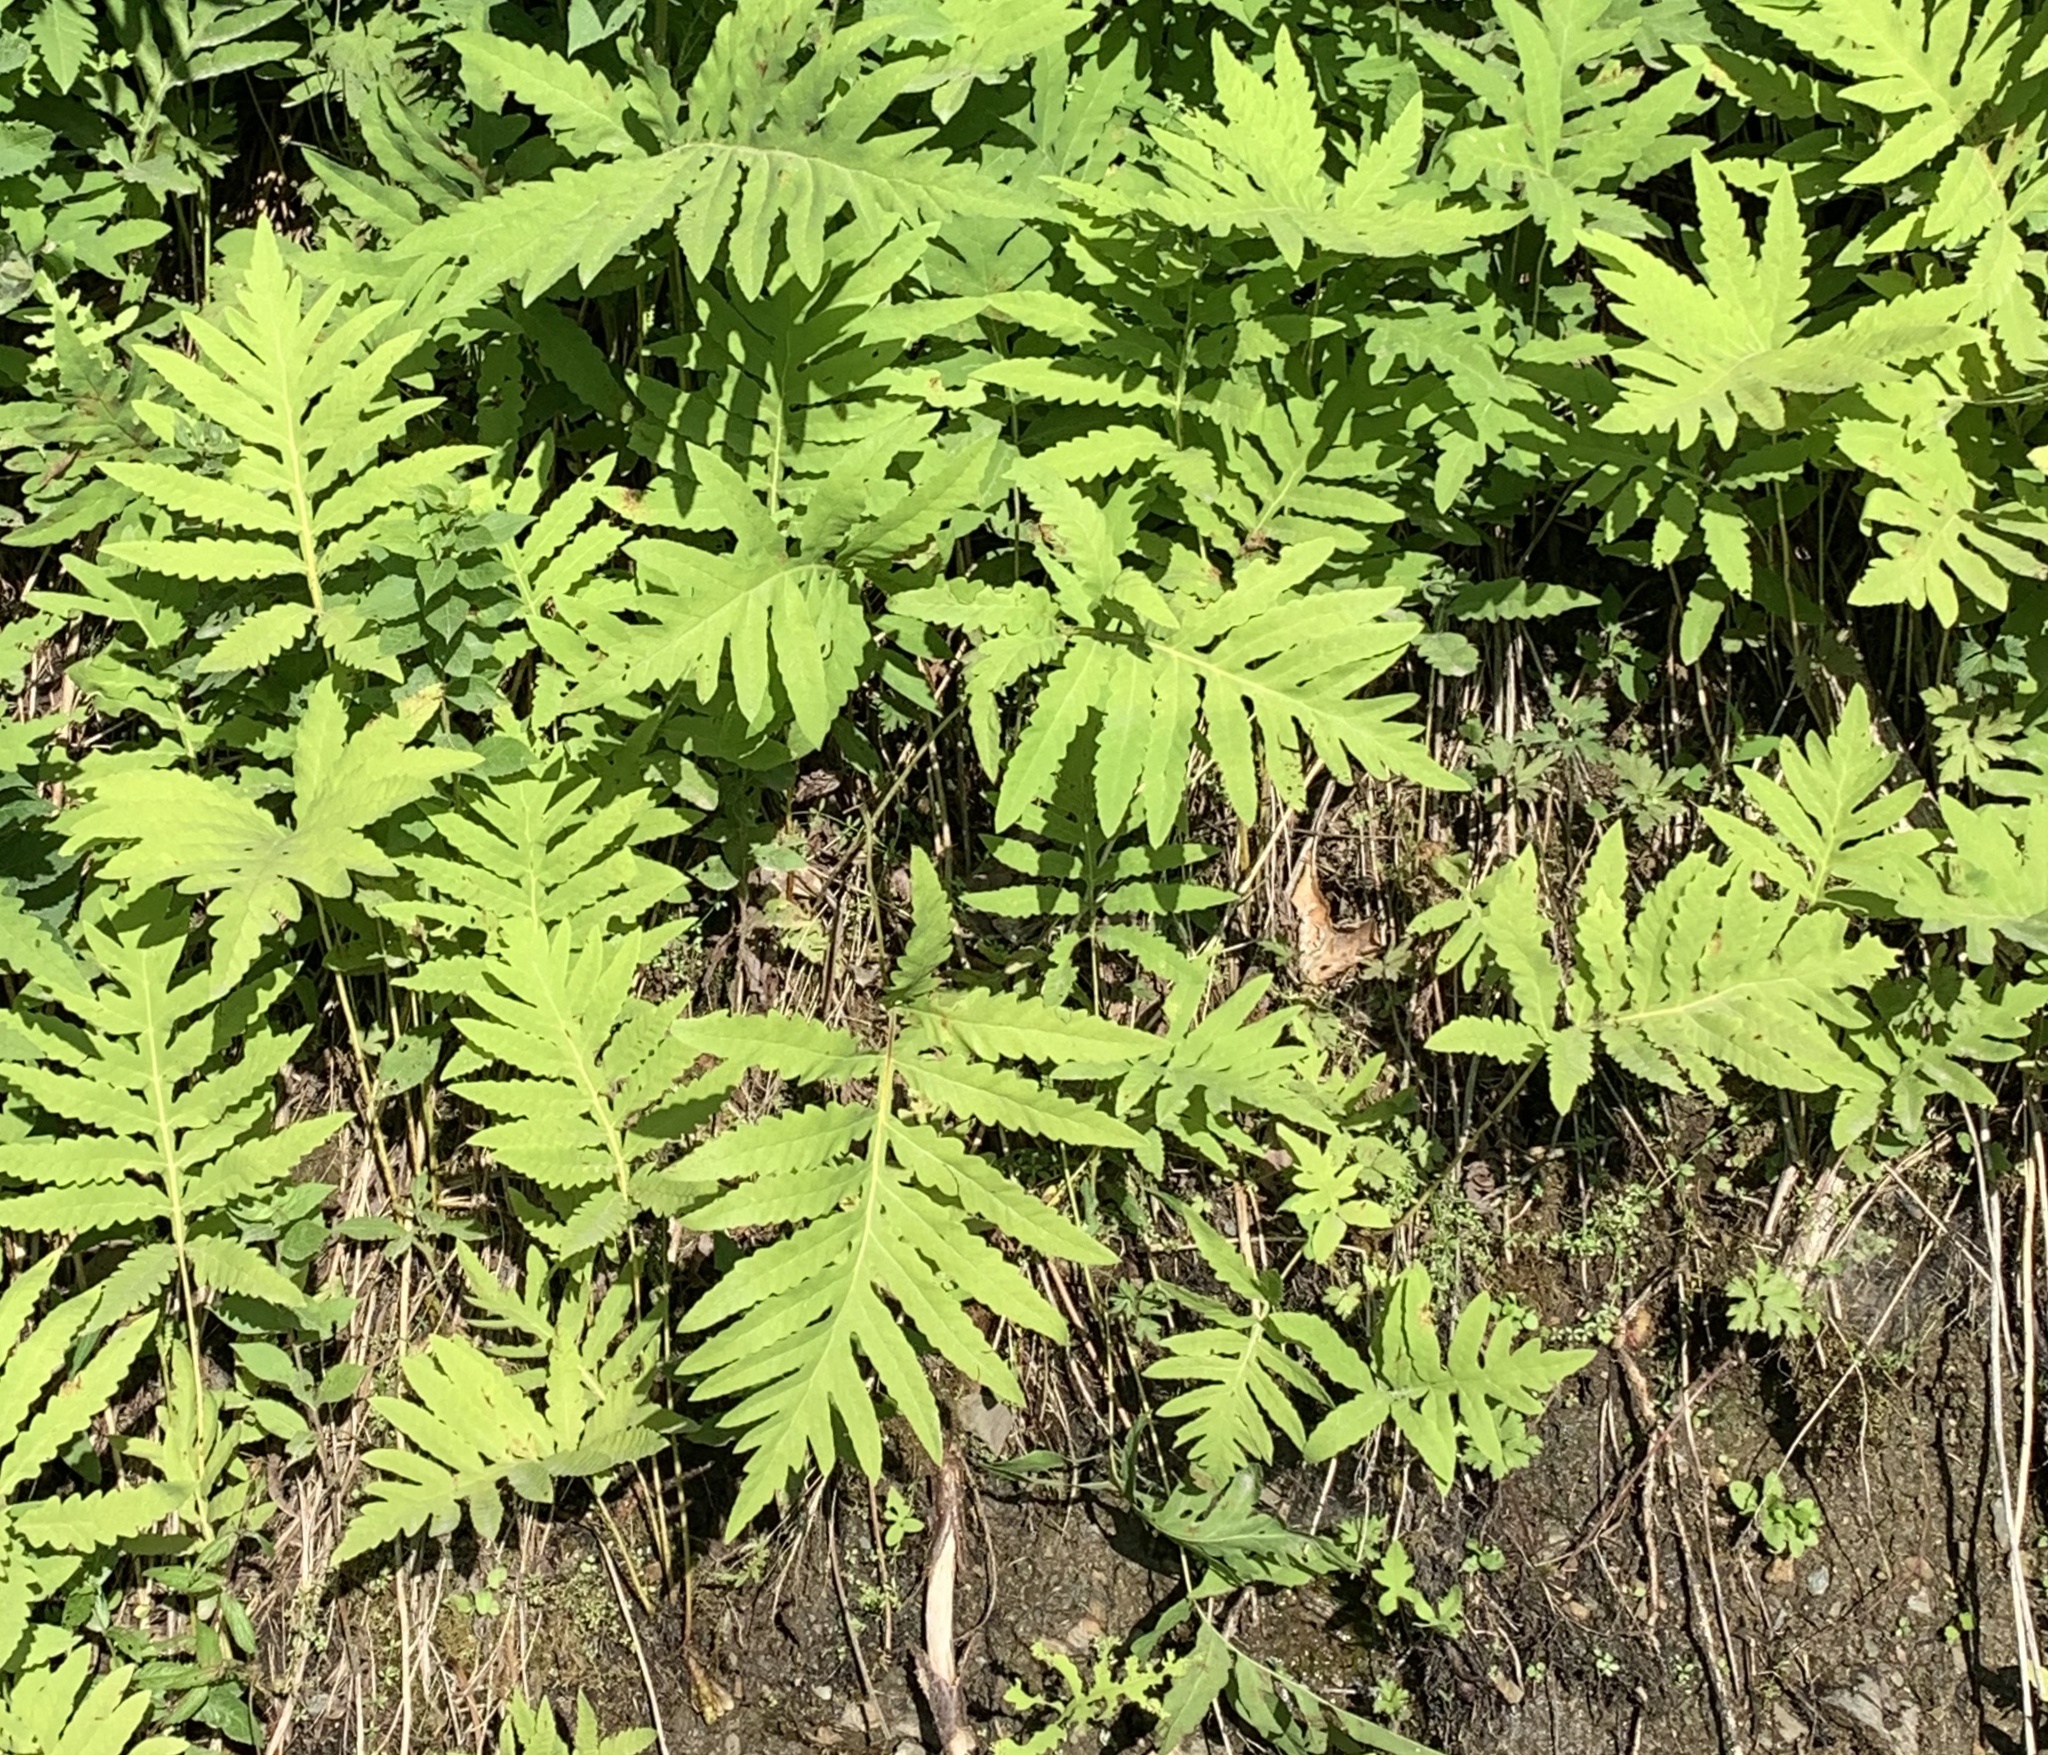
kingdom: Plantae
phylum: Tracheophyta
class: Polypodiopsida
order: Polypodiales
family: Onocleaceae
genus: Onoclea
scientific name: Onoclea sensibilis
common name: Sensitive fern
